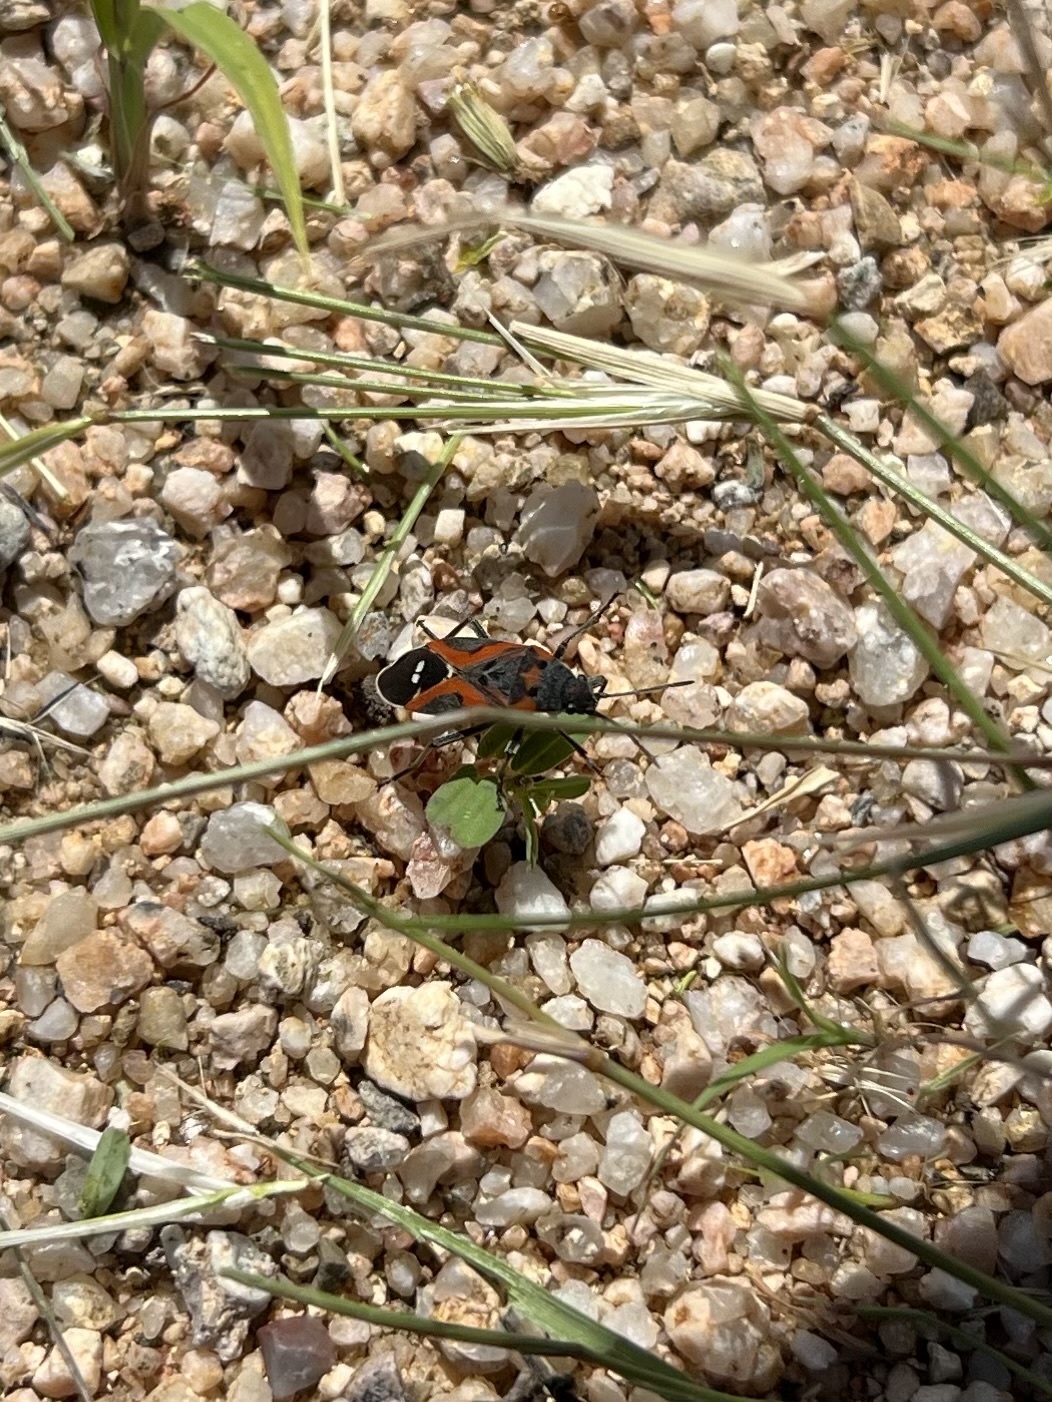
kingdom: Animalia
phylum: Arthropoda
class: Insecta
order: Hemiptera
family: Lygaeidae
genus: Lygaeus
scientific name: Lygaeus reclivatus
